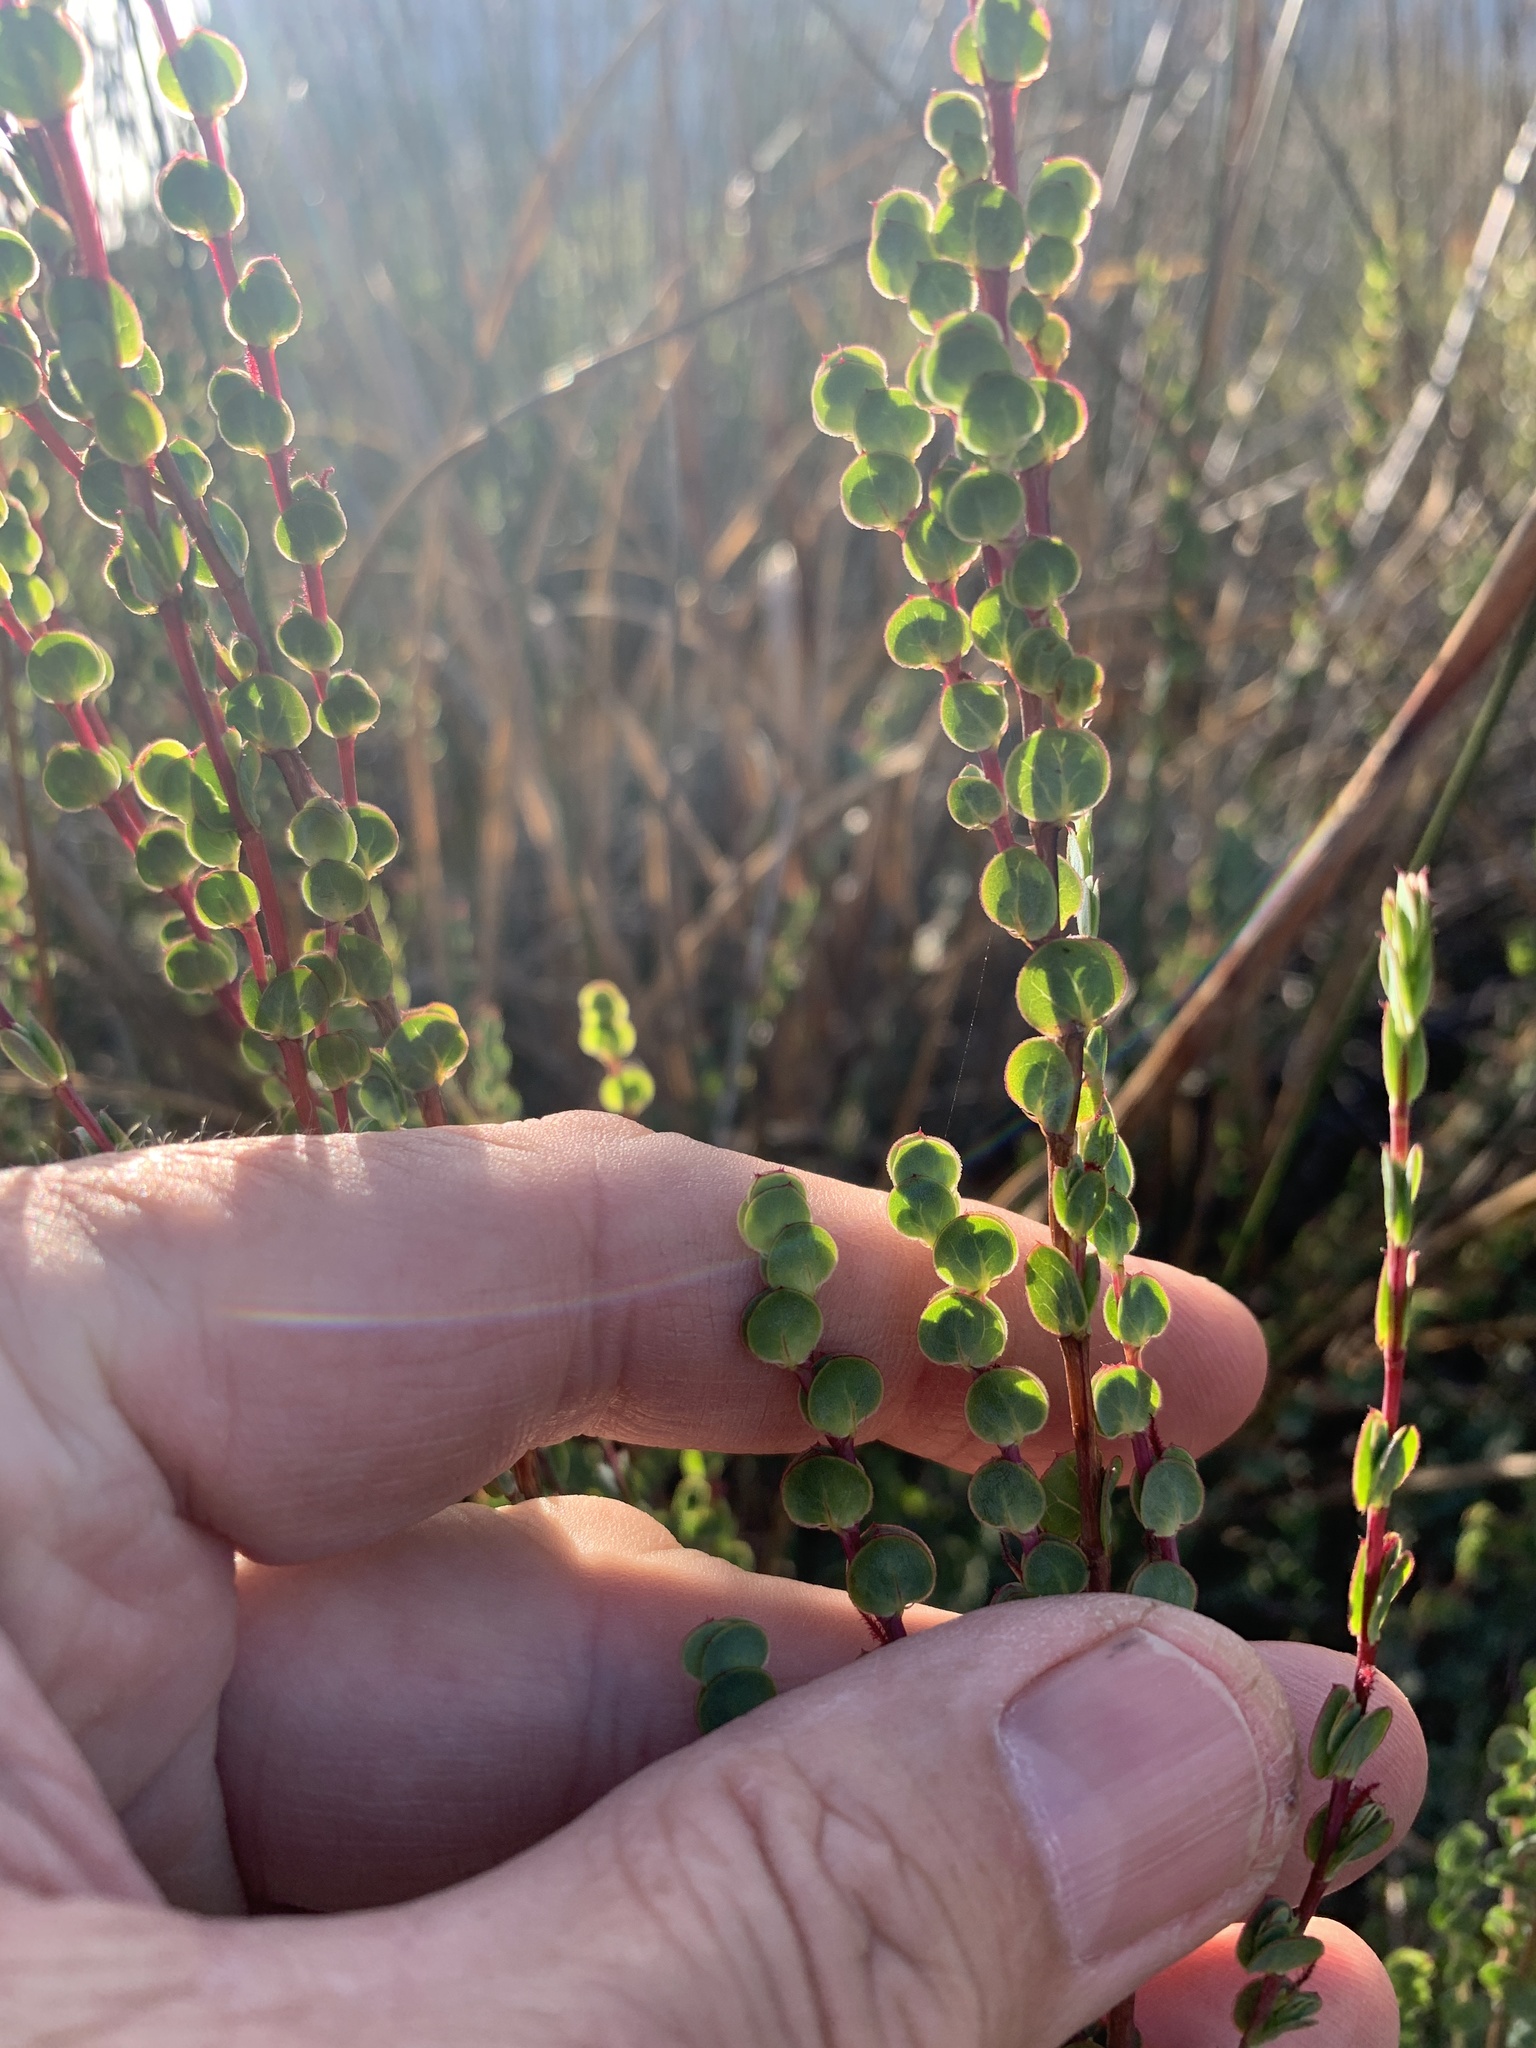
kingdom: Plantae
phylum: Tracheophyta
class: Magnoliopsida
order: Rosales
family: Rosaceae
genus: Cliffortia
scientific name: Cliffortia phyllanthoides
